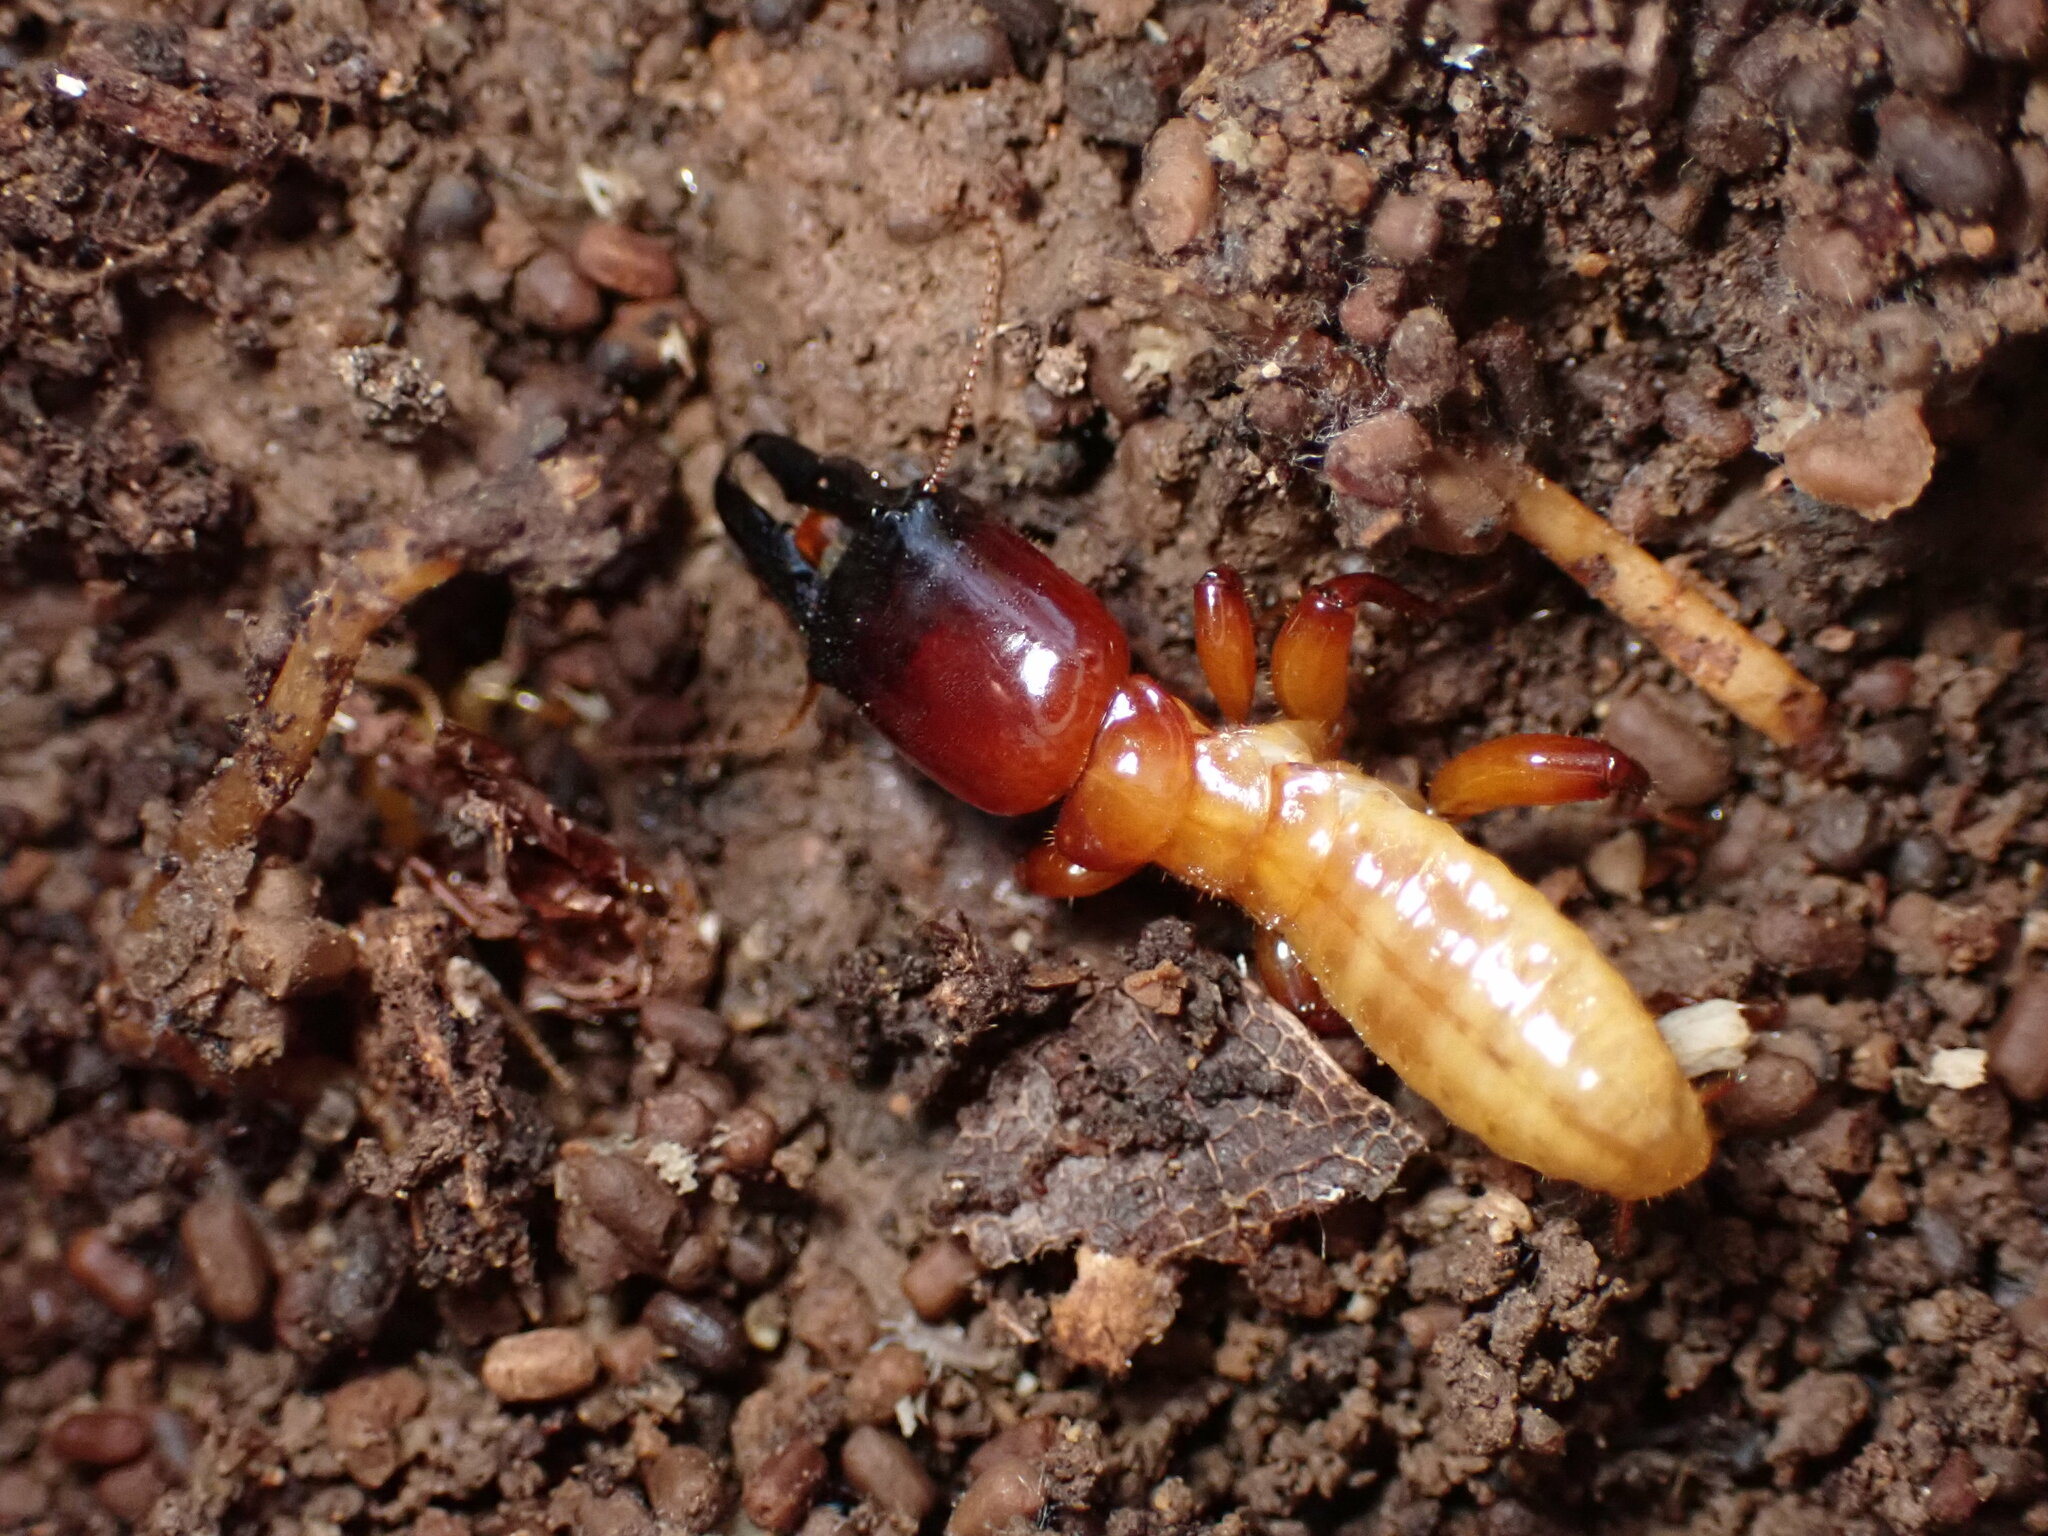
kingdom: Animalia
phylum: Arthropoda
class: Insecta
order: Blattodea
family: Archotermopsidae
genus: Zootermopsis
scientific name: Zootermopsis angusticollis
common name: Rottenwood termite
